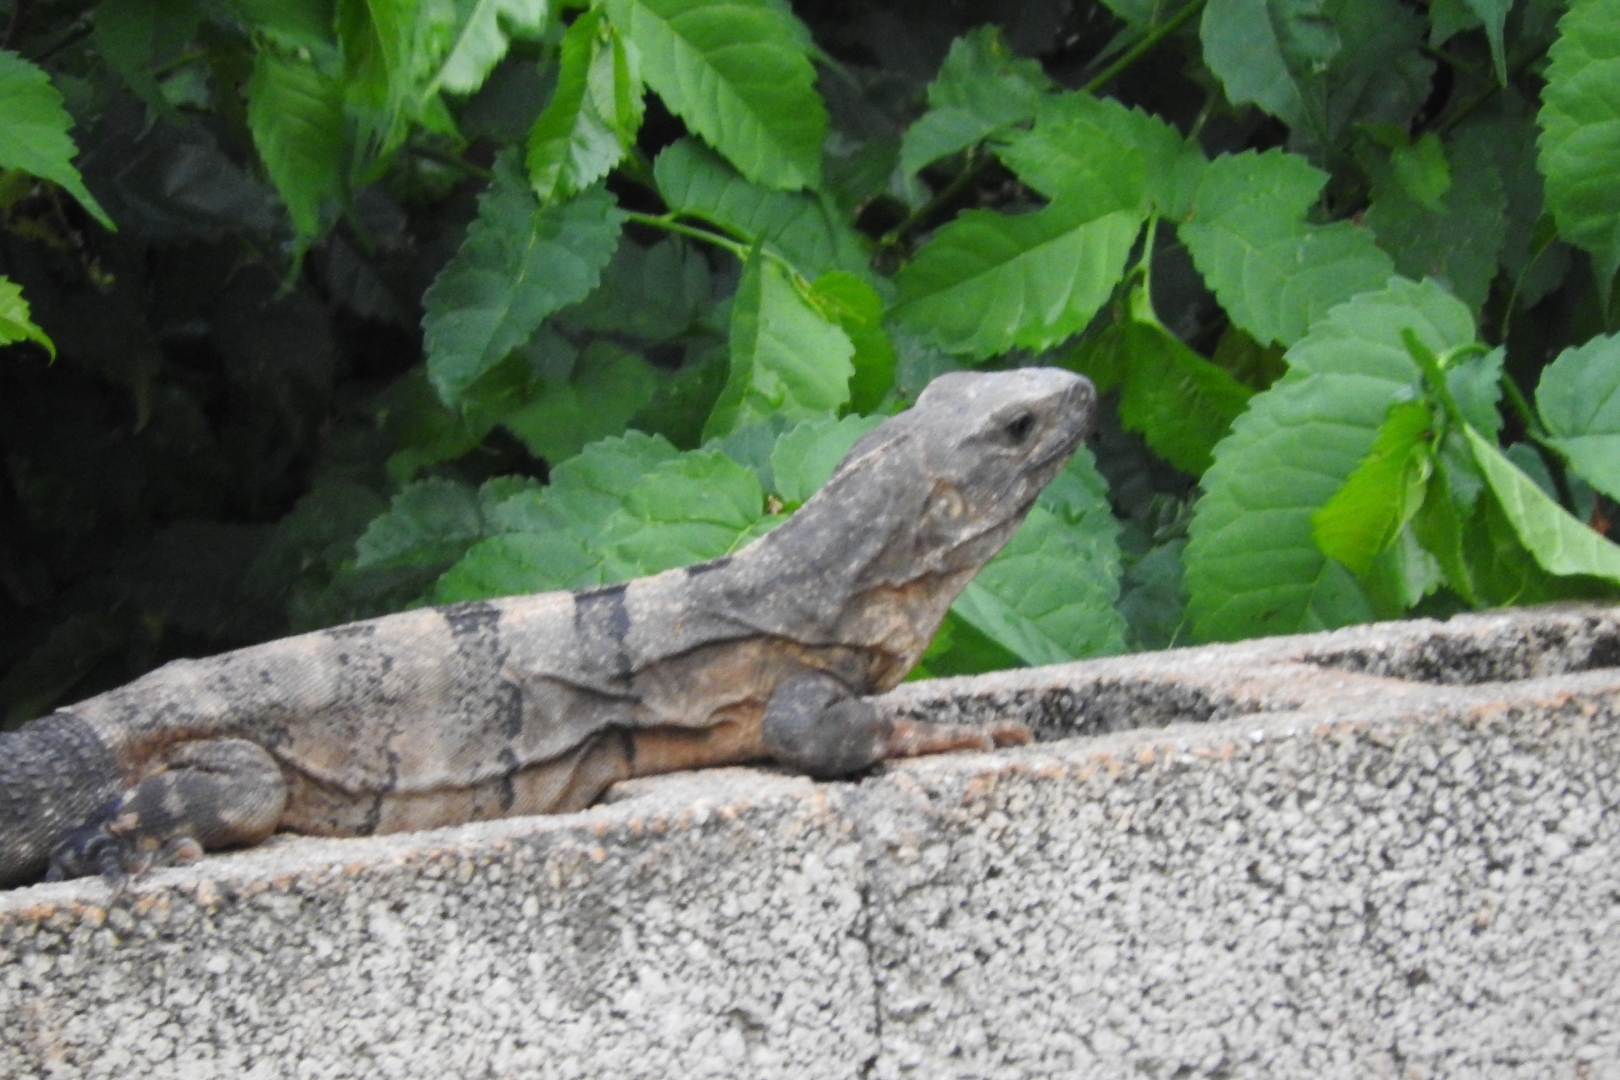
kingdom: Animalia
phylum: Chordata
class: Squamata
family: Iguanidae
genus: Ctenosaura
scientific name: Ctenosaura similis
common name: Black spiny-tailed iguana
